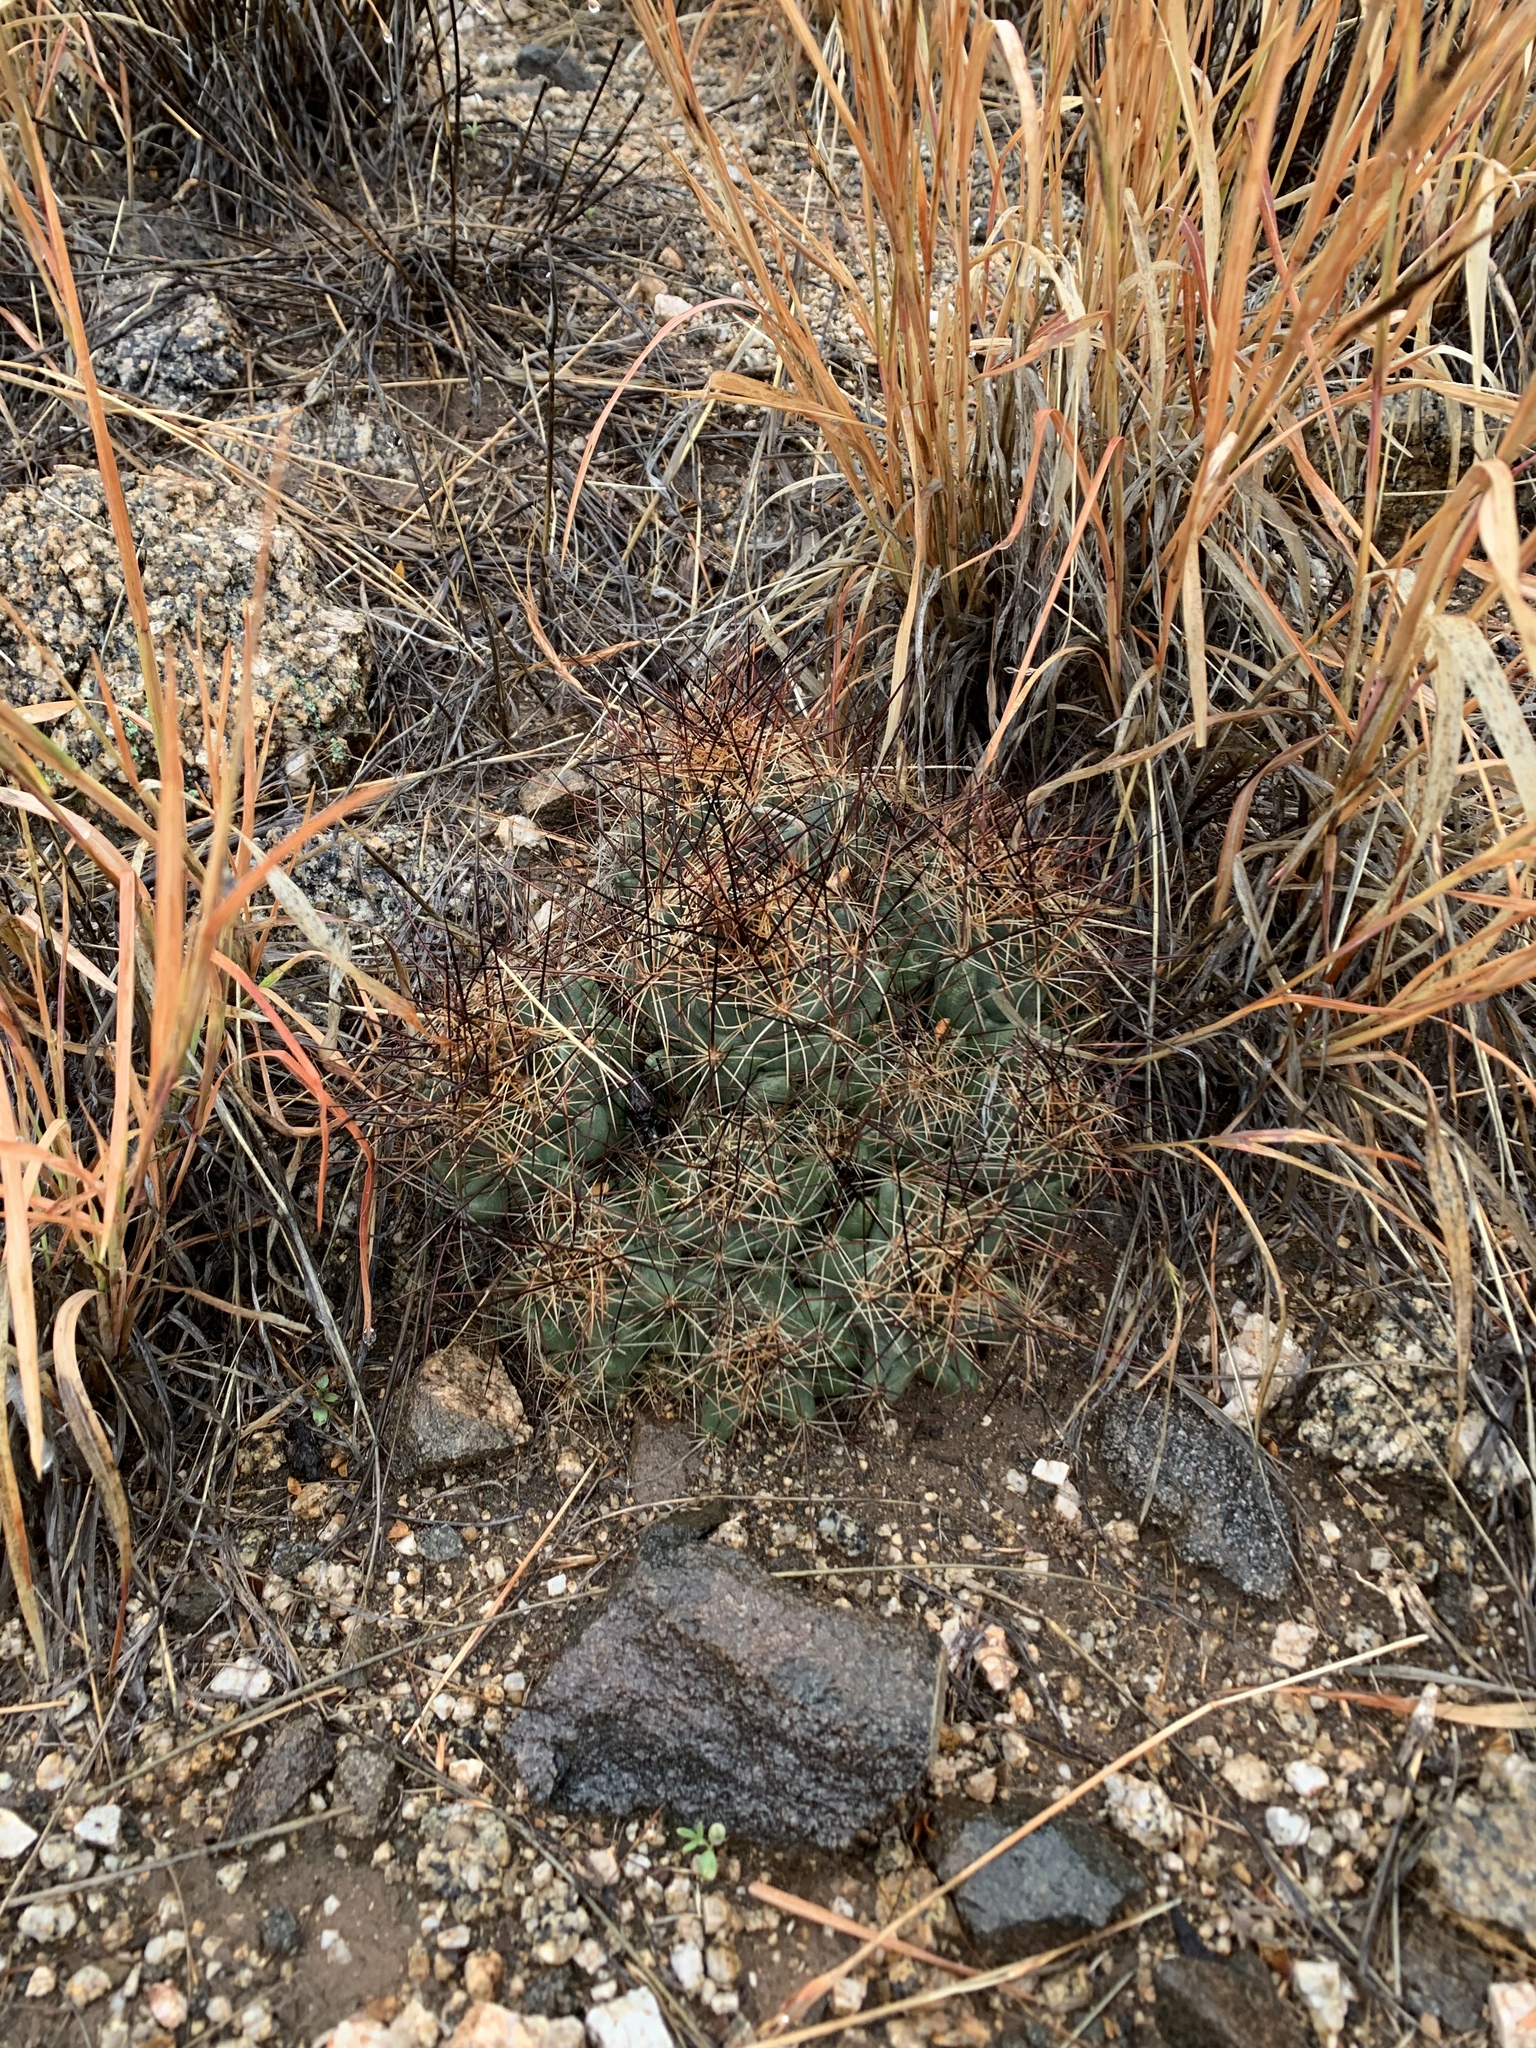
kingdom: Plantae
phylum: Tracheophyta
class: Magnoliopsida
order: Caryophyllales
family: Cactaceae
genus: Coryphantha
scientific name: Coryphantha macromeris
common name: Nipple beehive cactus
